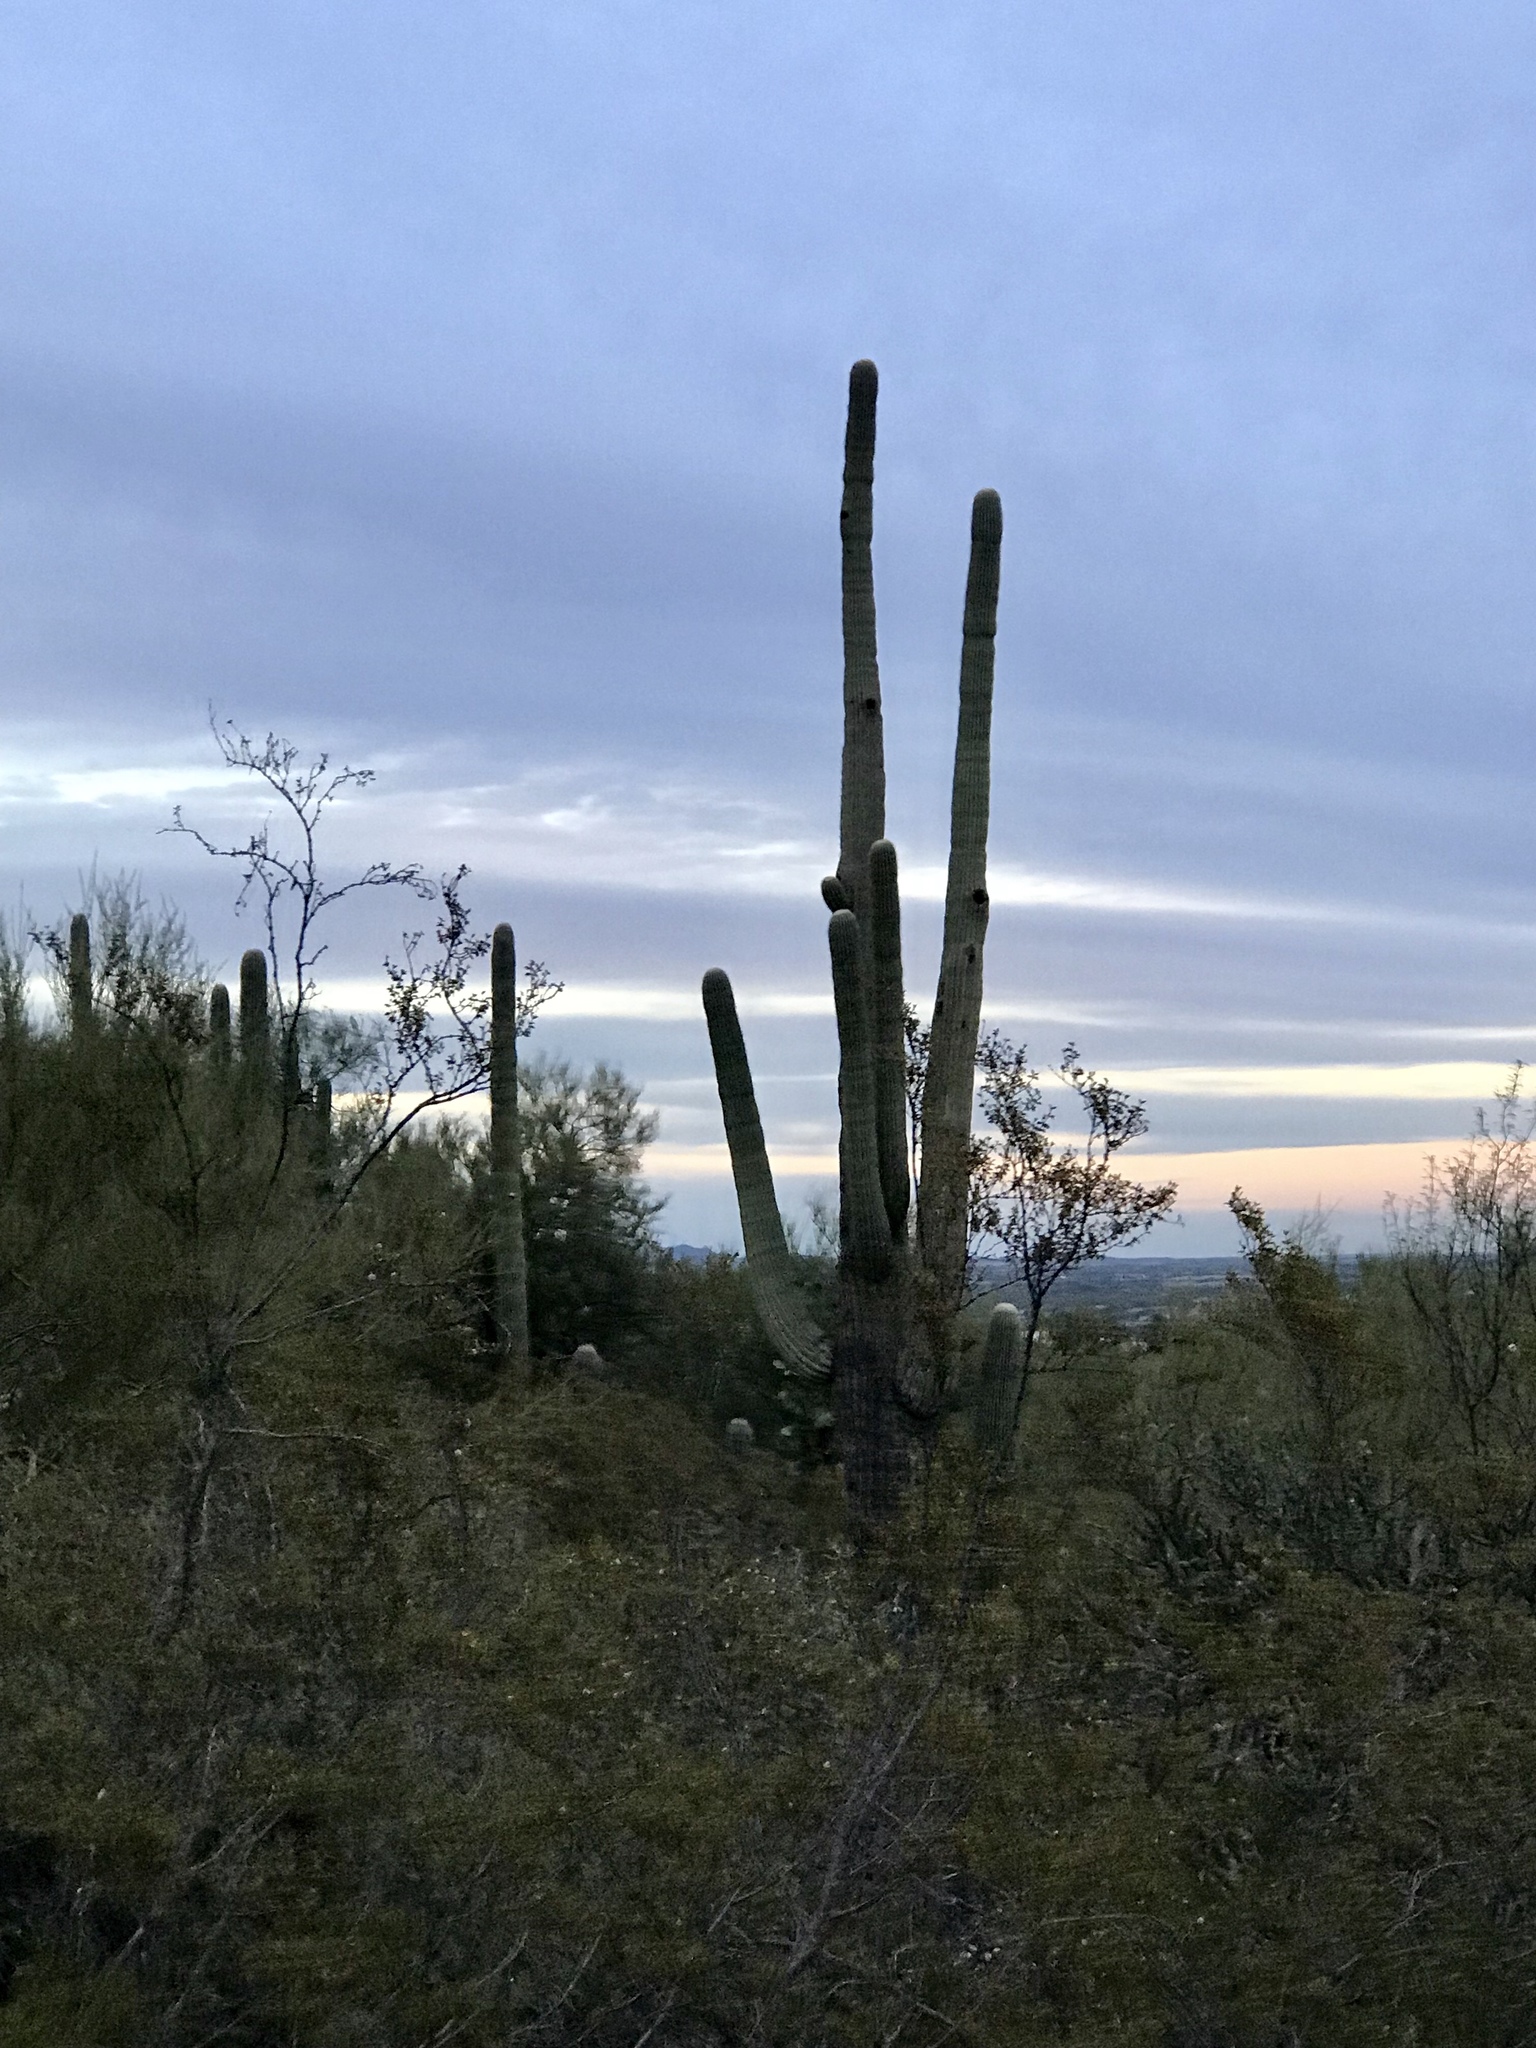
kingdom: Plantae
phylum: Tracheophyta
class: Magnoliopsida
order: Caryophyllales
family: Cactaceae
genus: Carnegiea
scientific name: Carnegiea gigantea
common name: Saguaro
